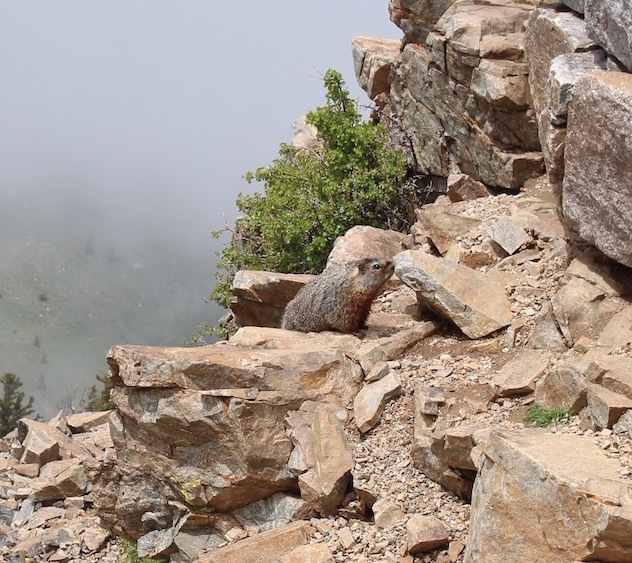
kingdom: Animalia
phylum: Chordata
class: Mammalia
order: Rodentia
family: Sciuridae
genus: Marmota
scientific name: Marmota flaviventris
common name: Yellow-bellied marmot
